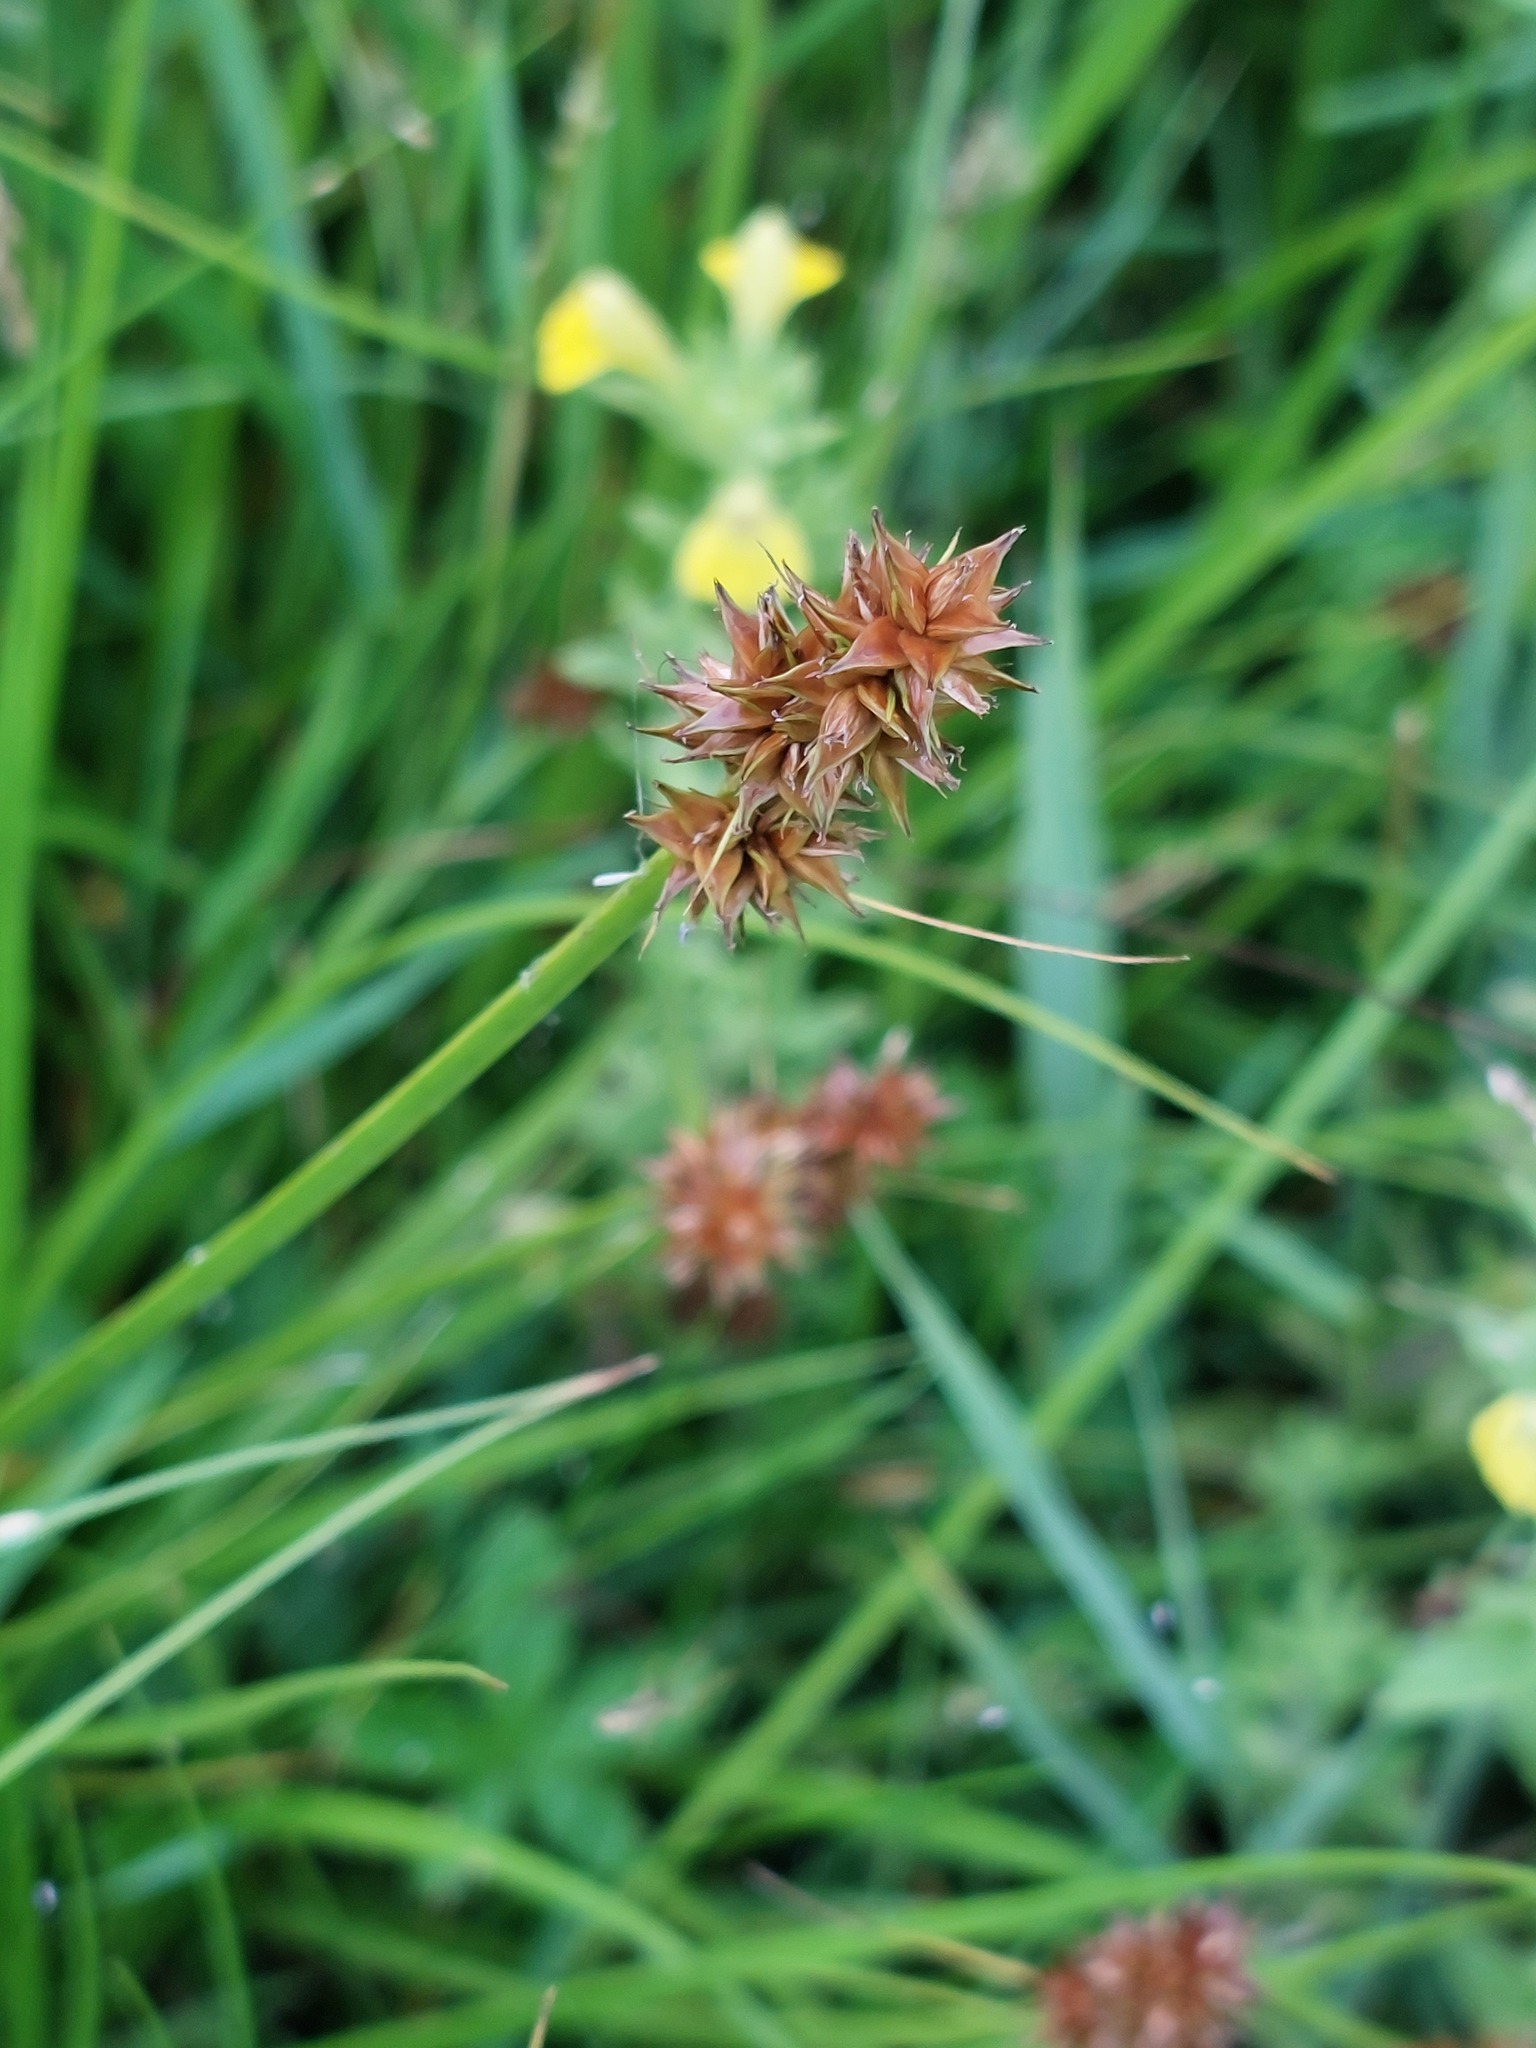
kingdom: Plantae
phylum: Tracheophyta
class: Liliopsida
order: Poales
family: Cyperaceae
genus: Carex
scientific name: Carex otrubae
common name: False fox-sedge
